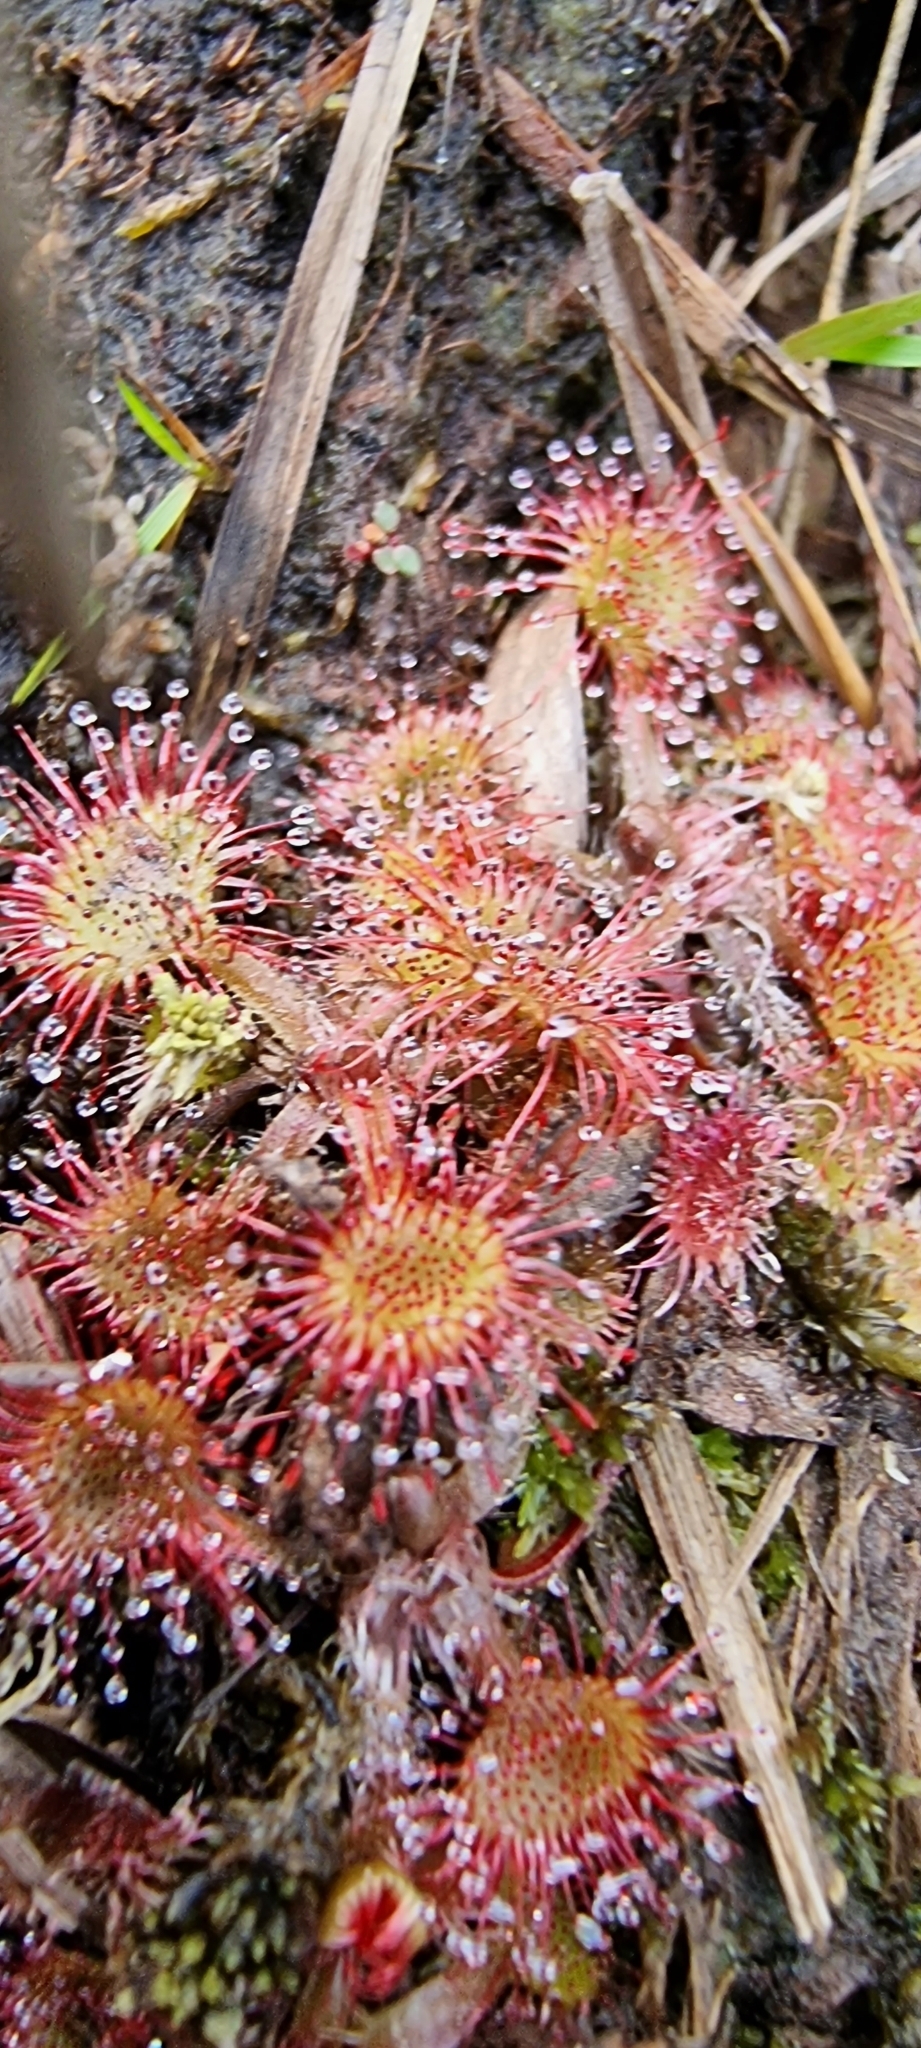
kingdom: Plantae
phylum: Tracheophyta
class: Magnoliopsida
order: Caryophyllales
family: Droseraceae
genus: Drosera
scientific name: Drosera rotundifolia
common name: Round-leaved sundew
